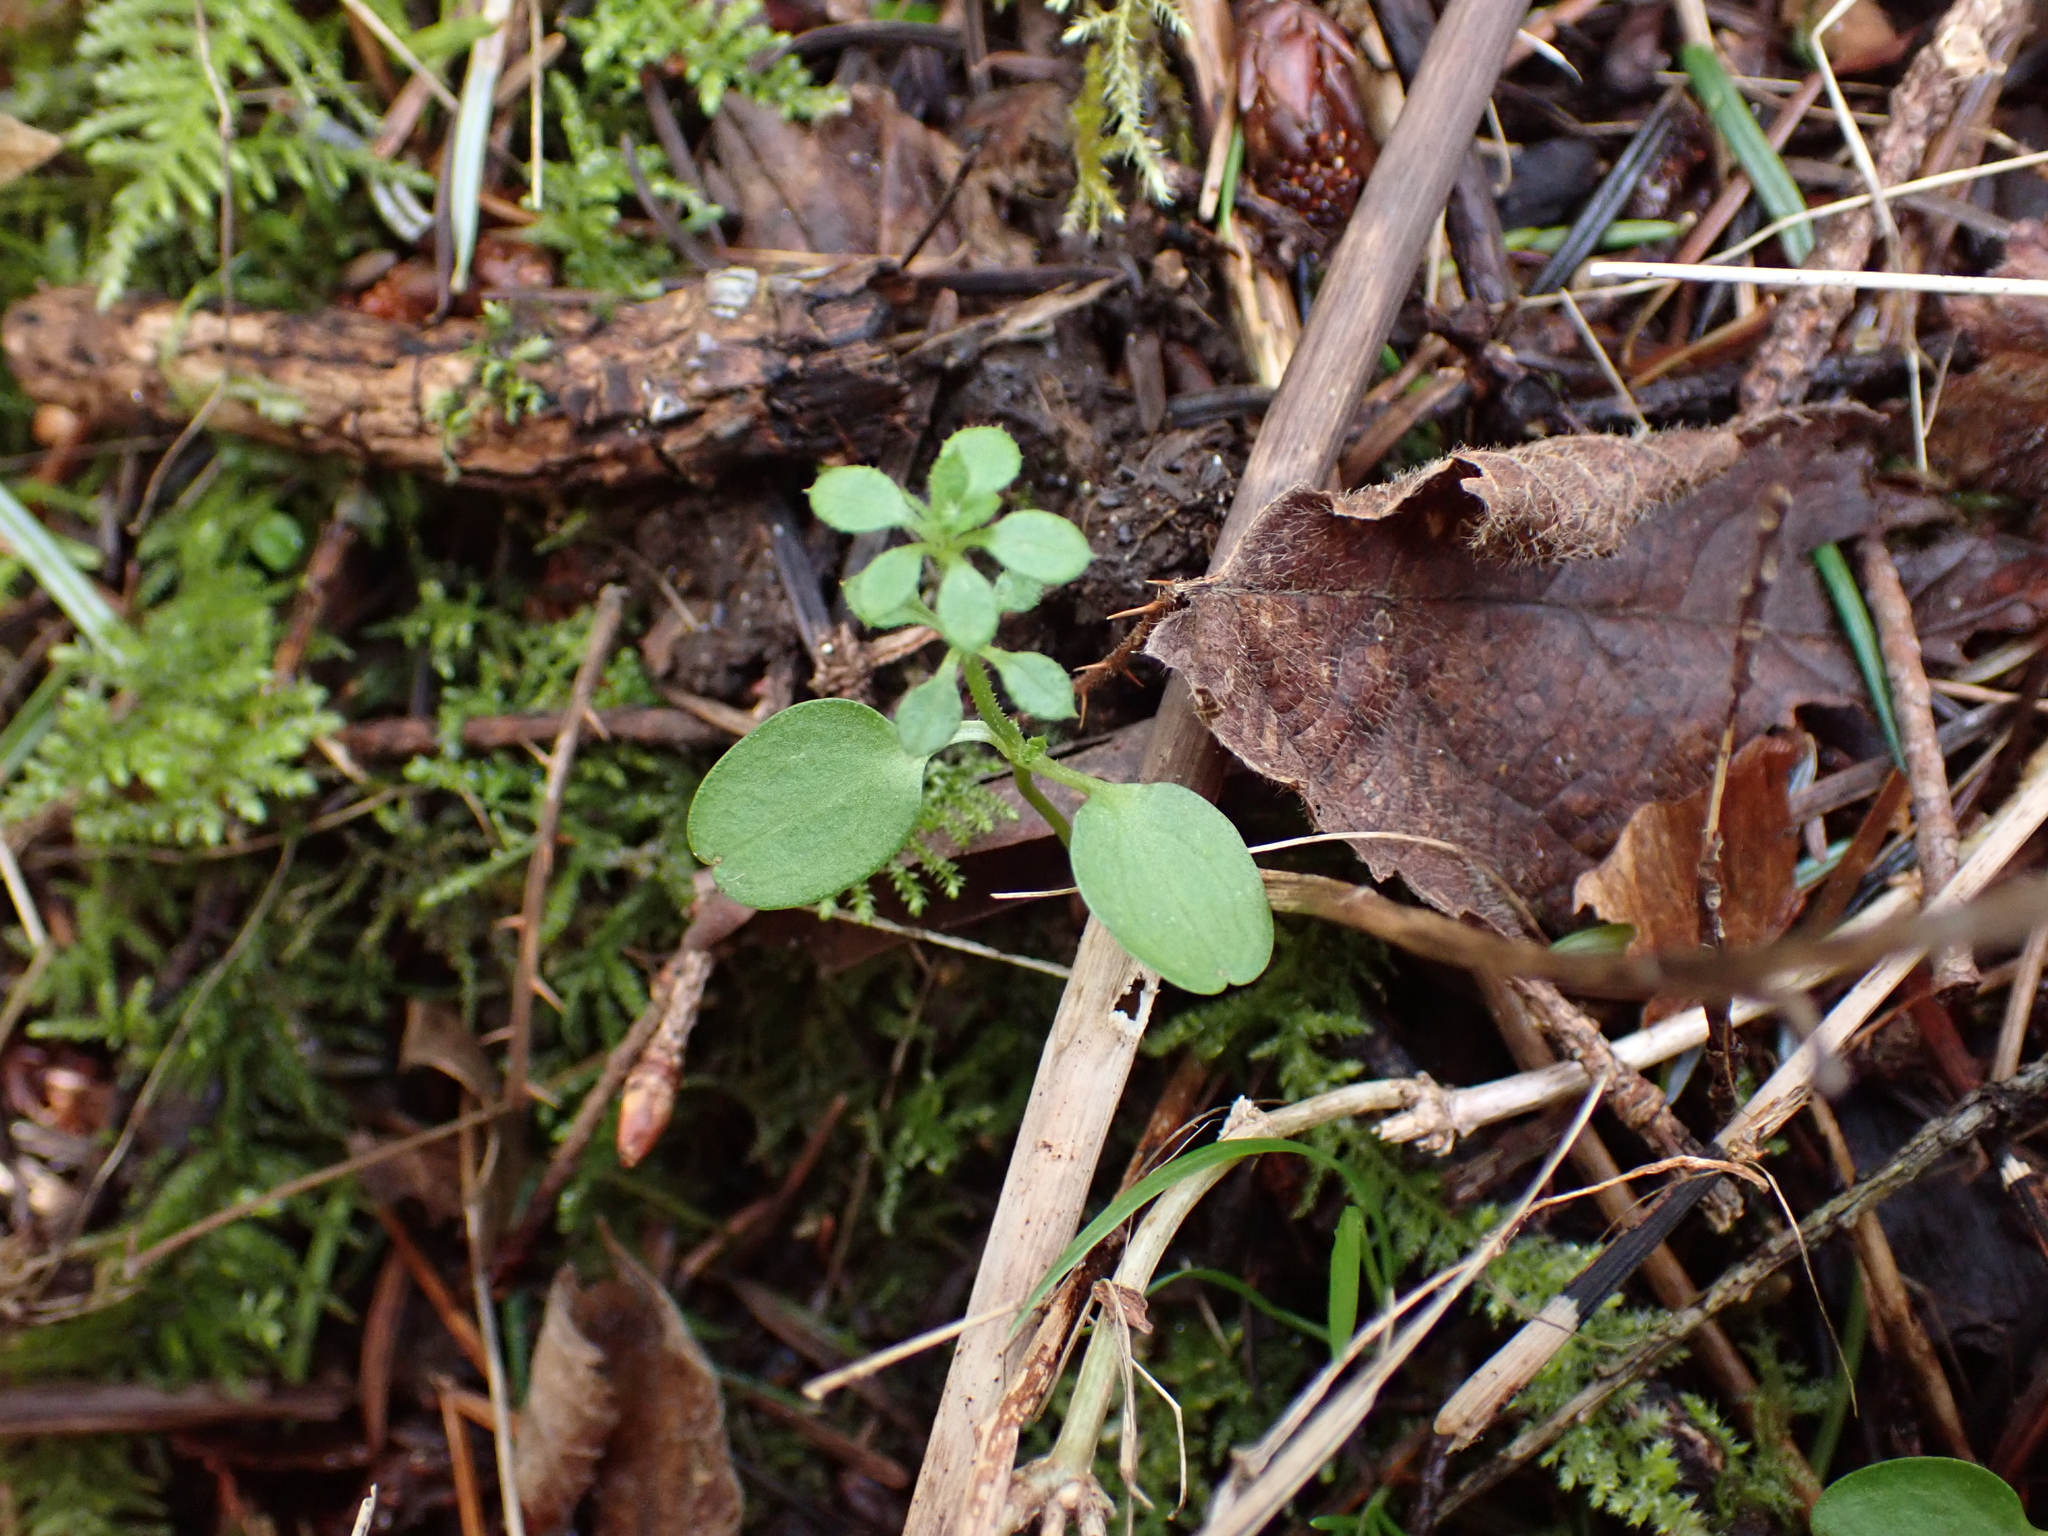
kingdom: Plantae
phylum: Tracheophyta
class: Magnoliopsida
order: Gentianales
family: Rubiaceae
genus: Galium
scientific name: Galium aparine
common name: Cleavers
